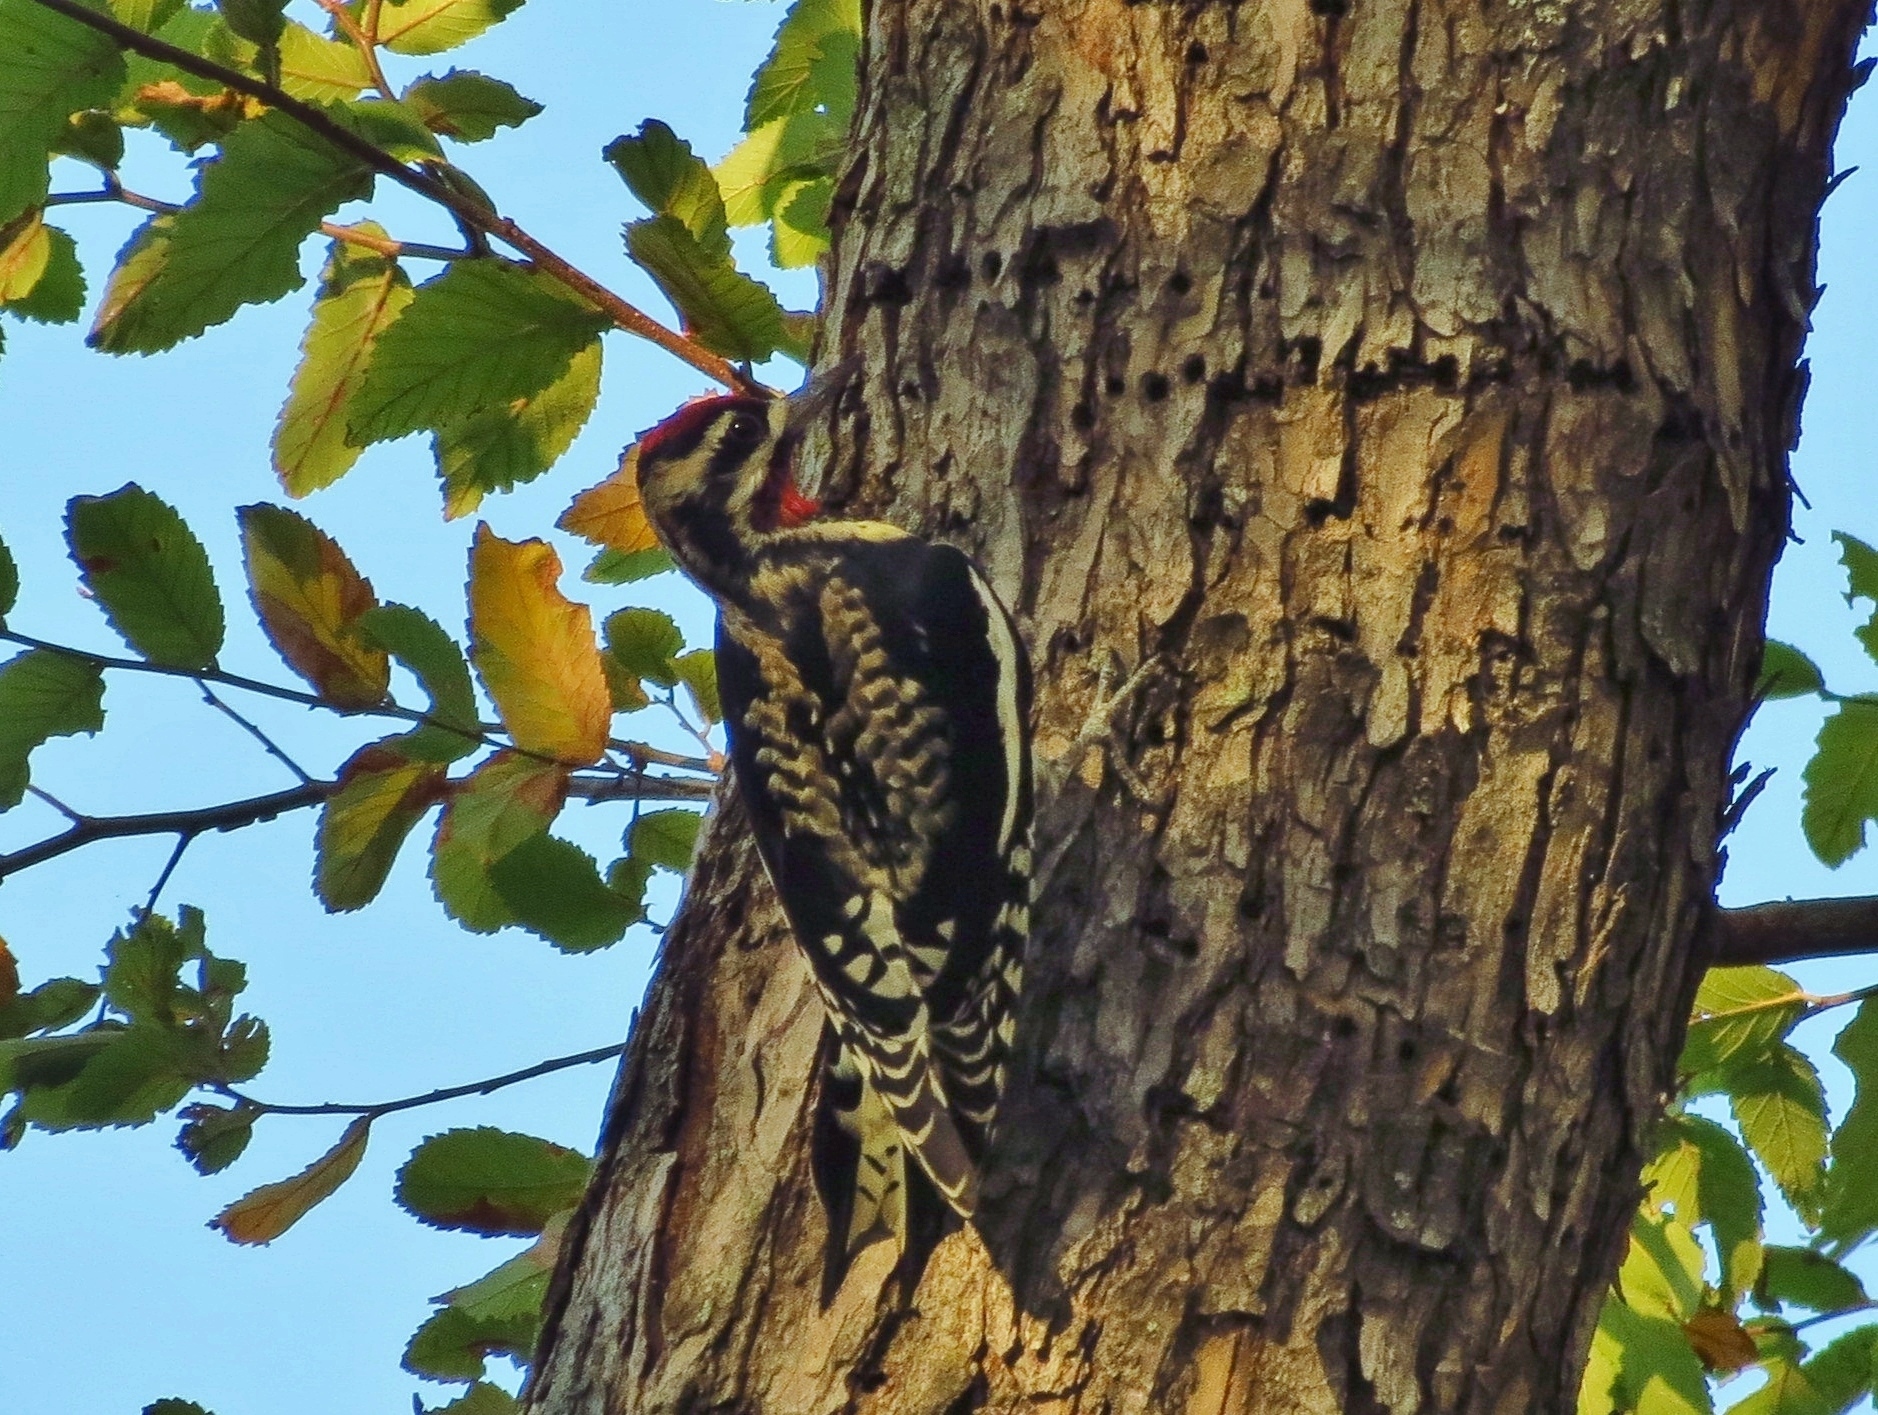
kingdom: Animalia
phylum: Chordata
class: Aves
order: Piciformes
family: Picidae
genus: Sphyrapicus
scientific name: Sphyrapicus varius
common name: Yellow-bellied sapsucker
